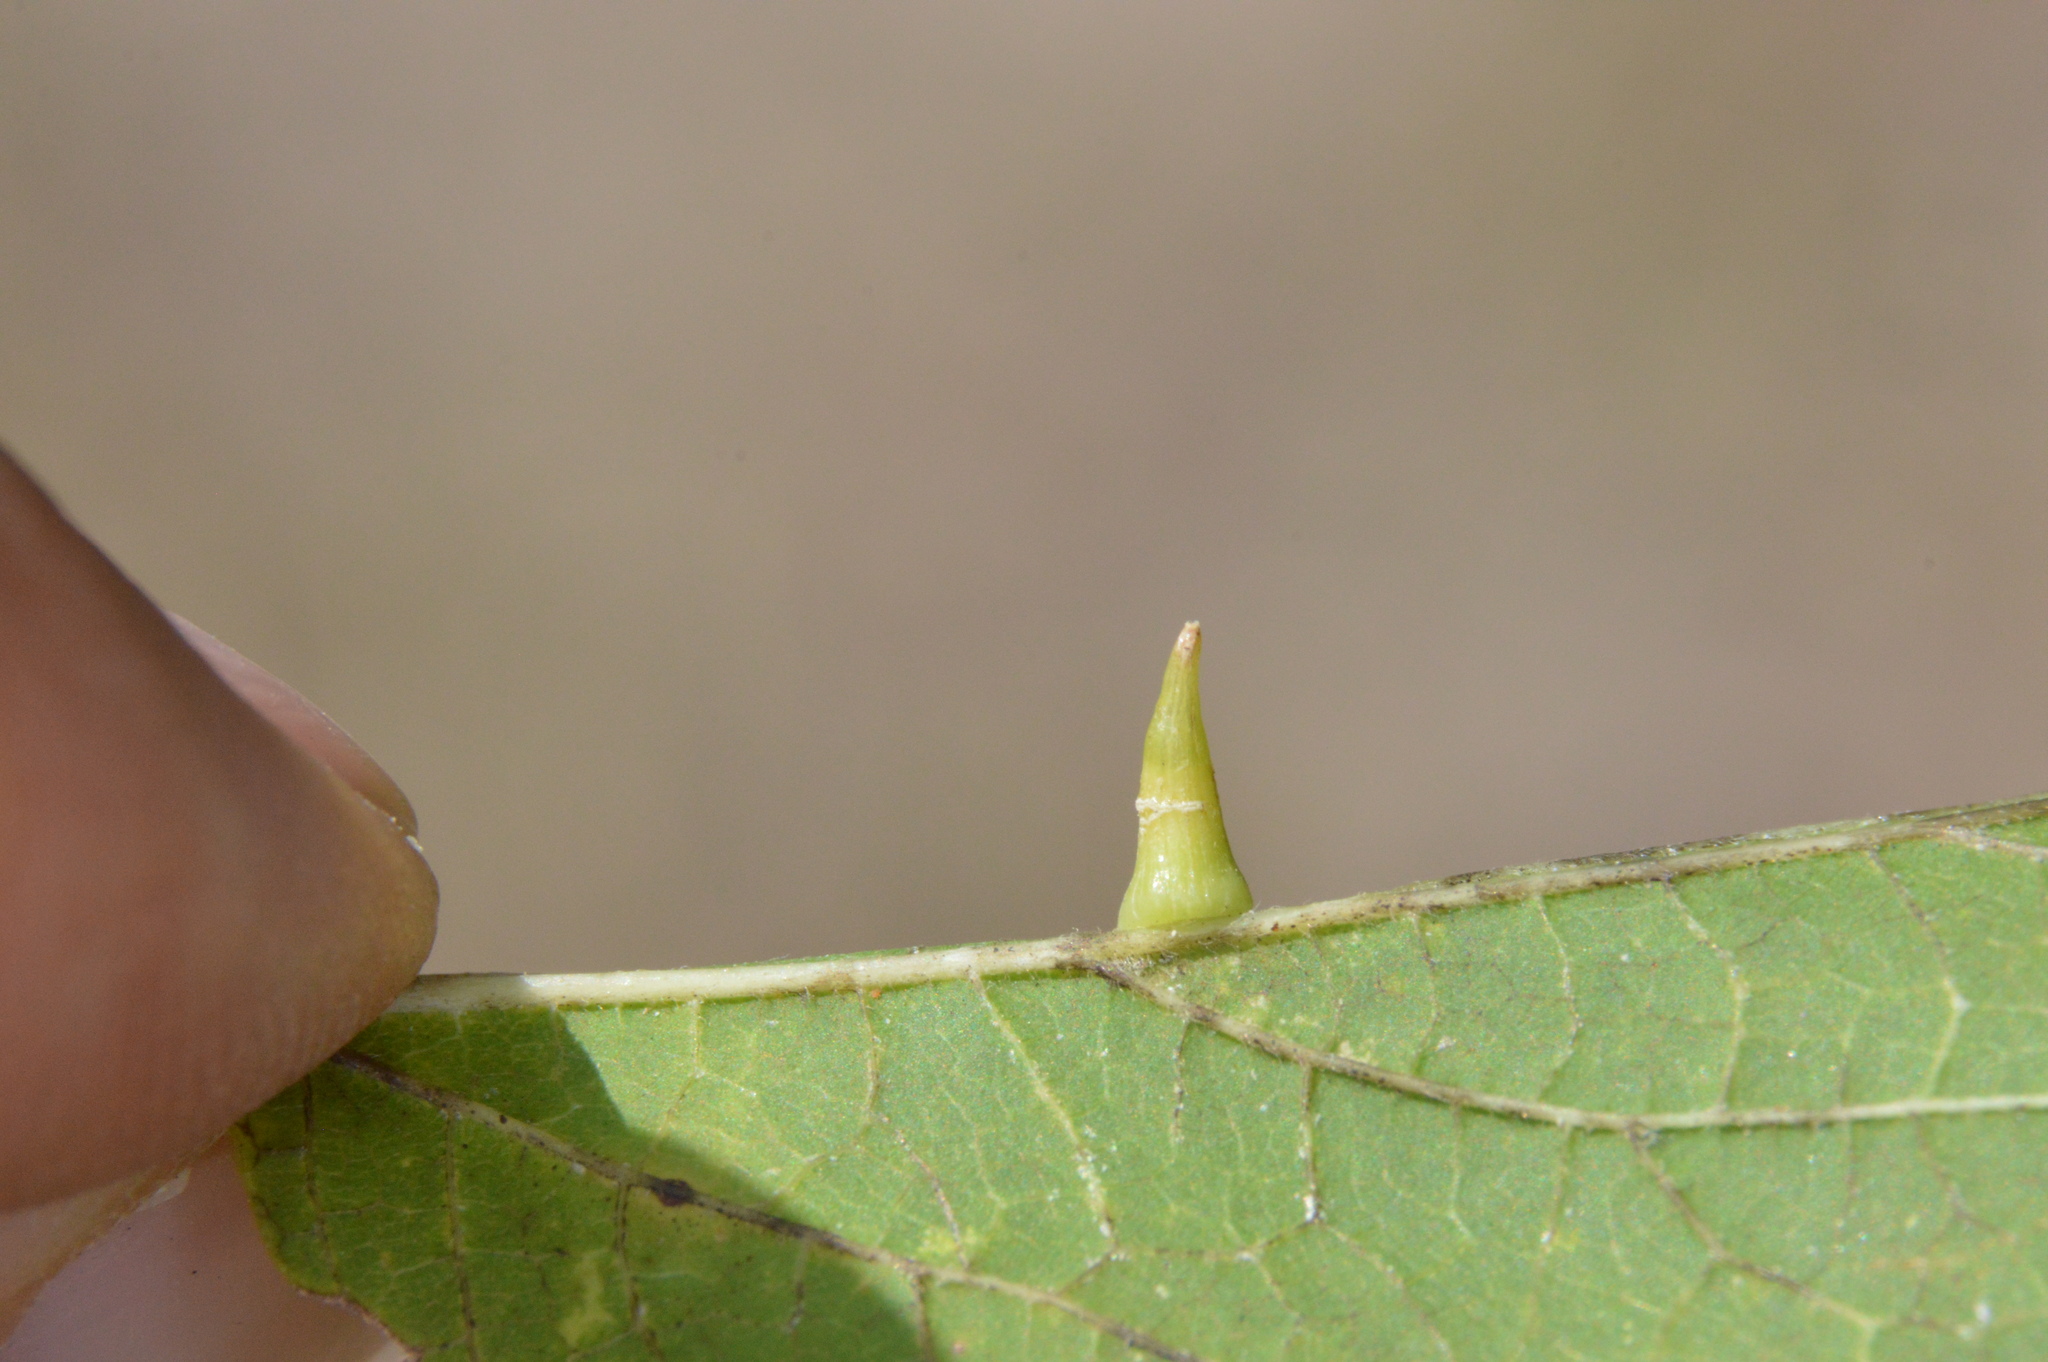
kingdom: Animalia
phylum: Arthropoda
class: Insecta
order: Diptera
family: Cecidomyiidae
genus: Celticecis
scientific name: Celticecis subulata
